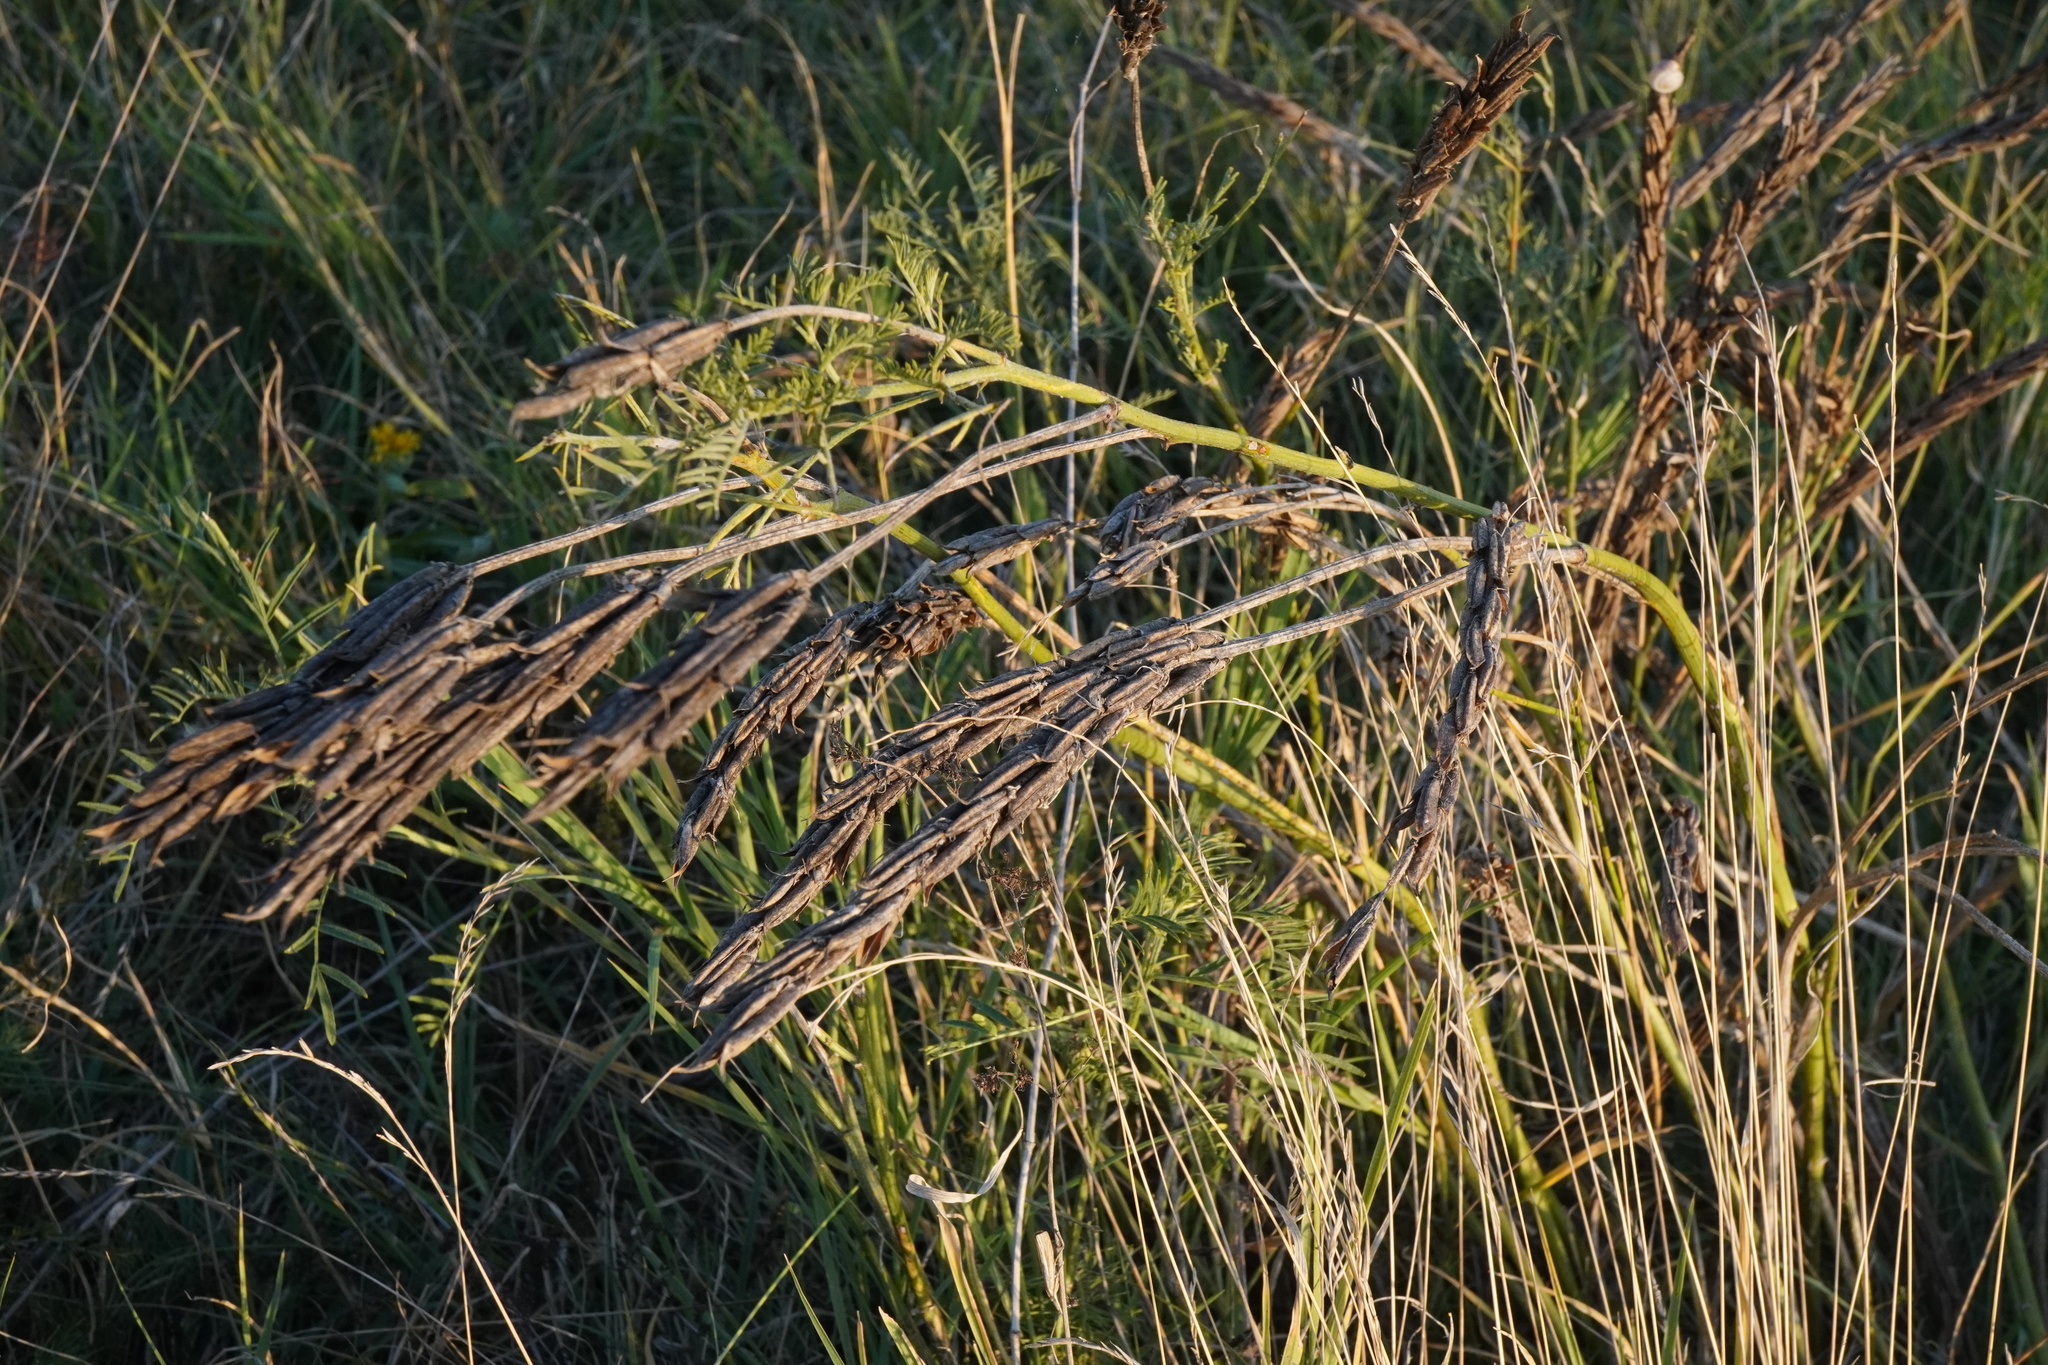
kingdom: Plantae
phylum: Tracheophyta
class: Magnoliopsida
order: Fabales
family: Fabaceae
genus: Astragalus
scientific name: Astragalus asper
